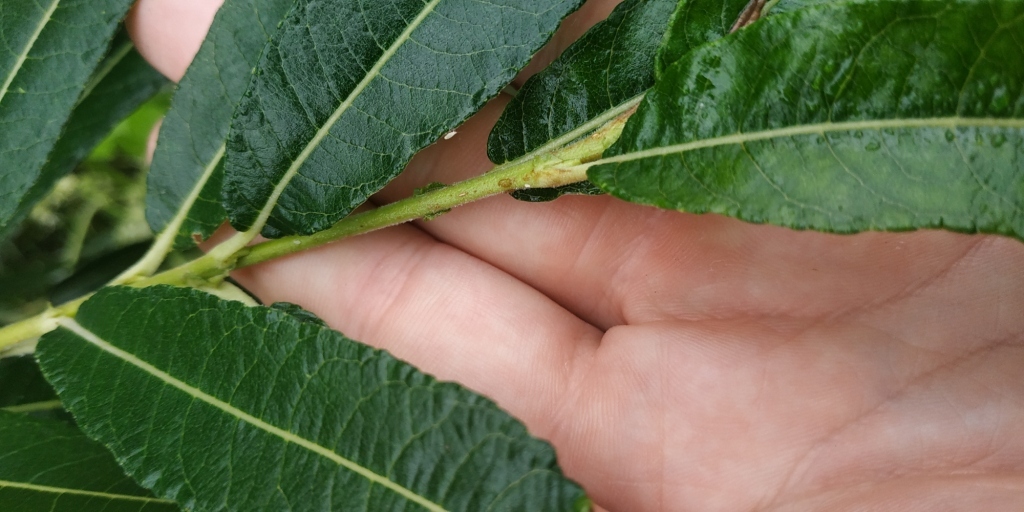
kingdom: Plantae
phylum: Tracheophyta
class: Magnoliopsida
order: Malpighiales
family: Salicaceae
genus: Salix
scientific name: Salix gmelinii
